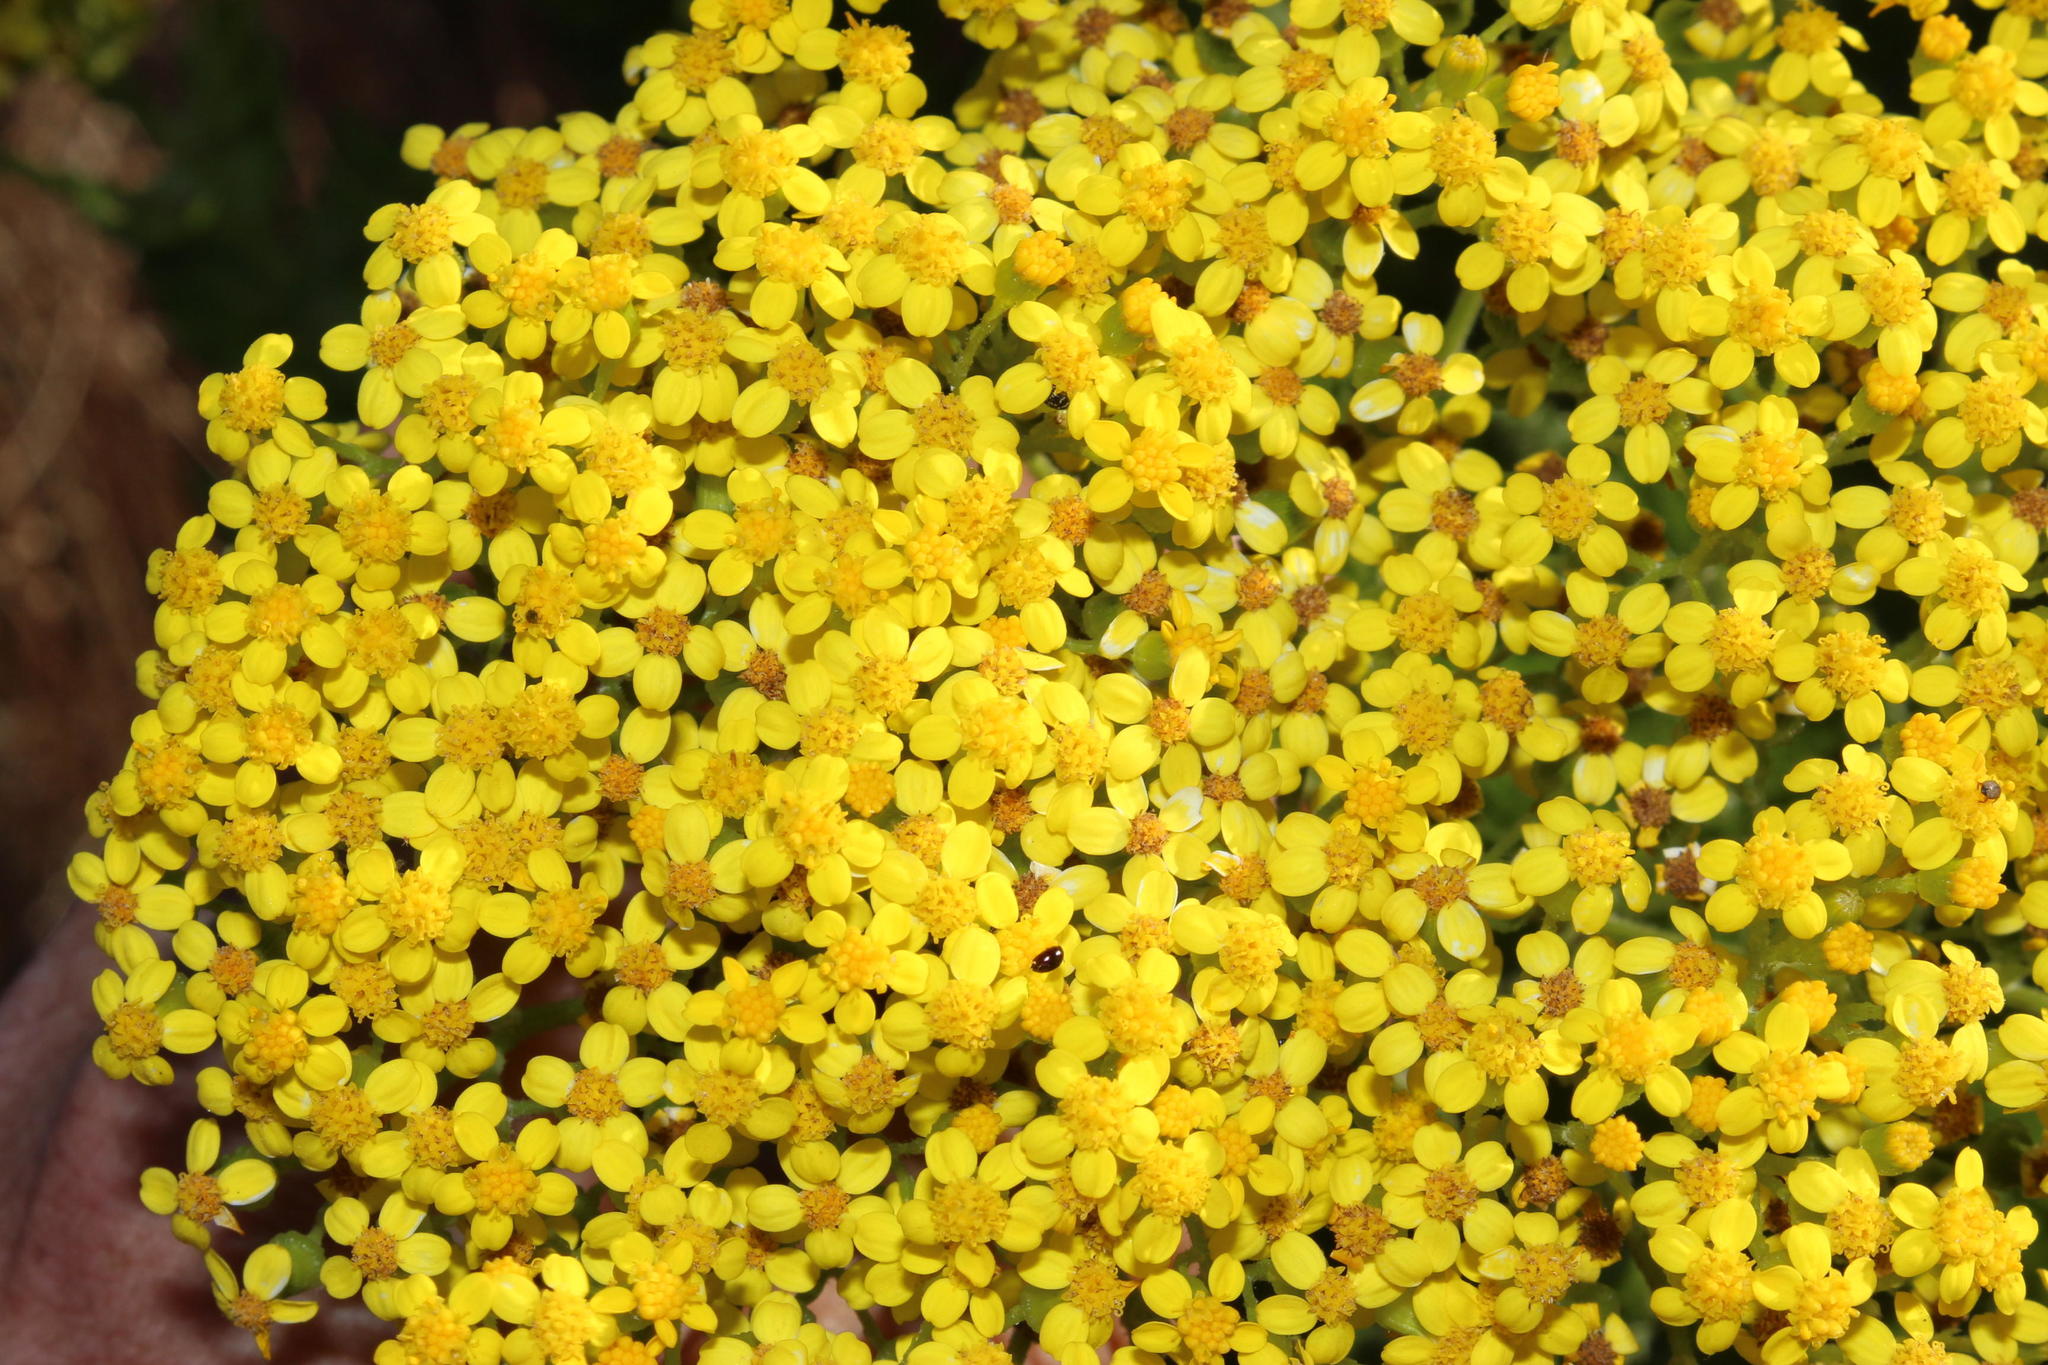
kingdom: Plantae
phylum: Tracheophyta
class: Magnoliopsida
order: Asterales
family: Asteraceae
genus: Senecio
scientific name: Senecio rigidus
